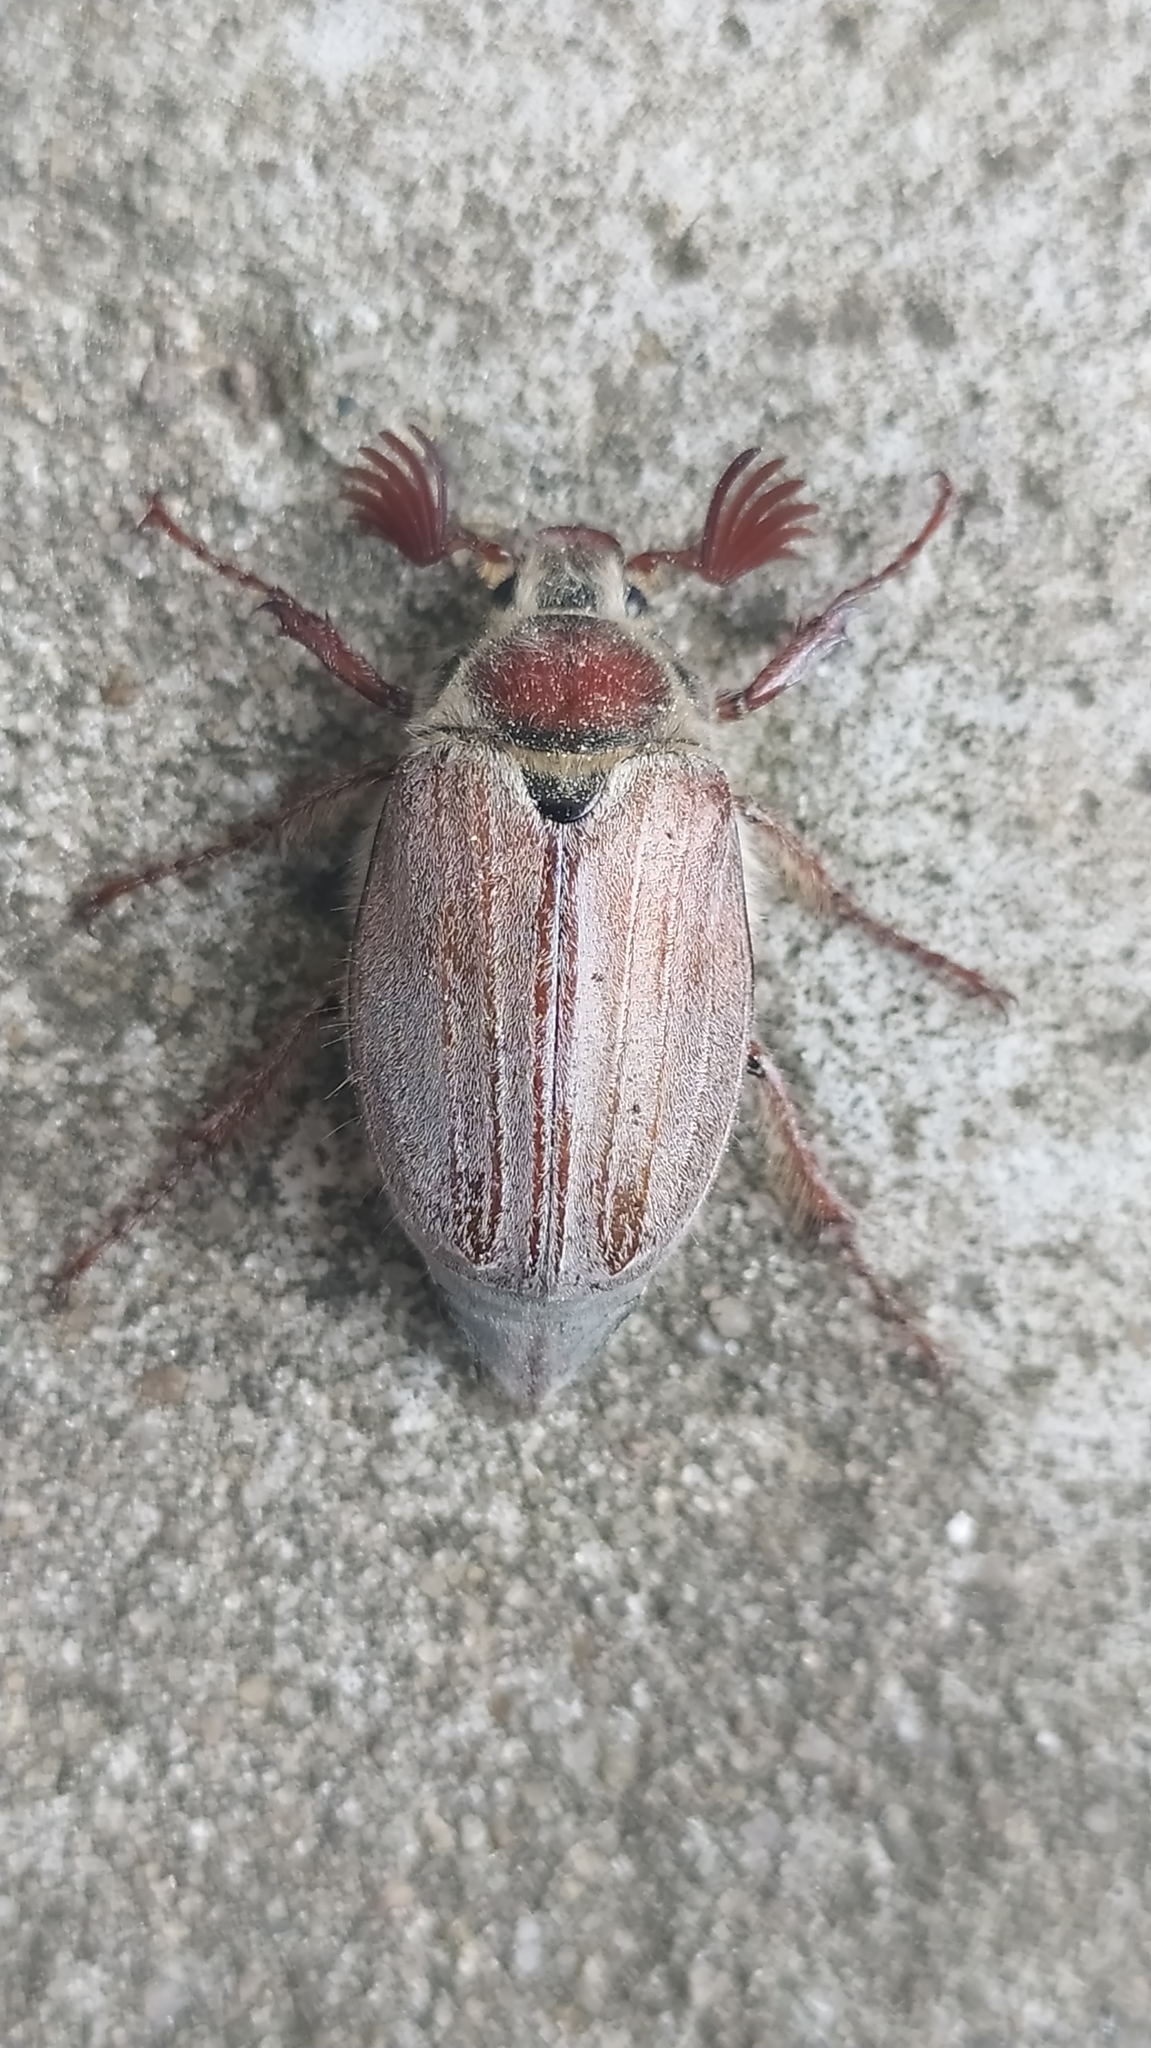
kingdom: Animalia
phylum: Arthropoda
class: Insecta
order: Coleoptera
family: Scarabaeidae
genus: Melolontha
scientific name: Melolontha hippocastani
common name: Chestnut cockchafer
